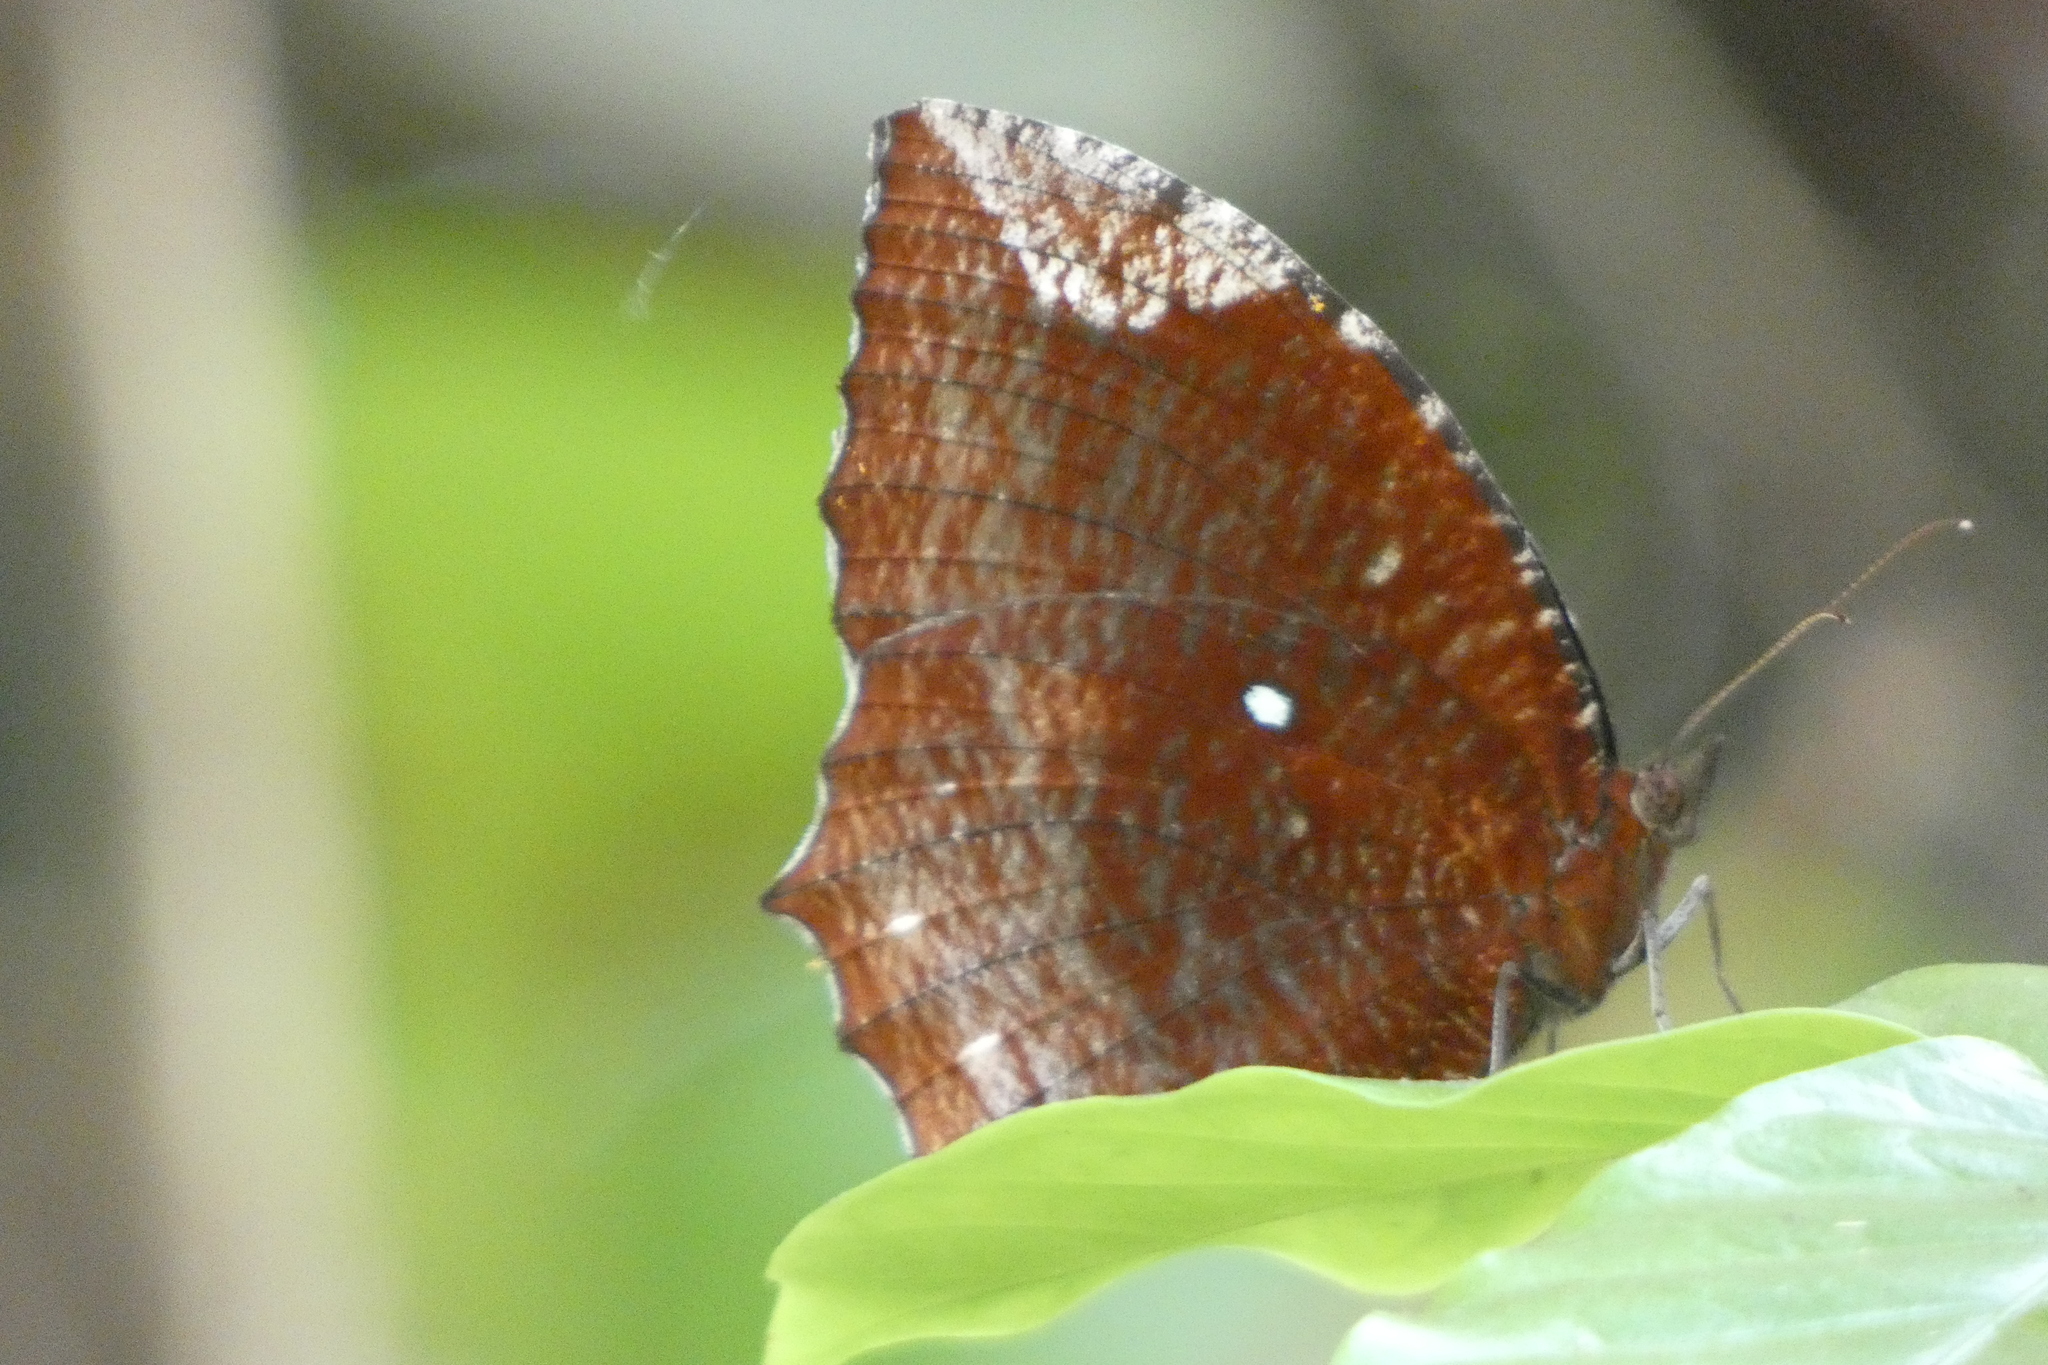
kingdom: Animalia
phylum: Arthropoda
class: Insecta
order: Lepidoptera
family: Nymphalidae
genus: Elymnias
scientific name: Elymnias hypermnestra
